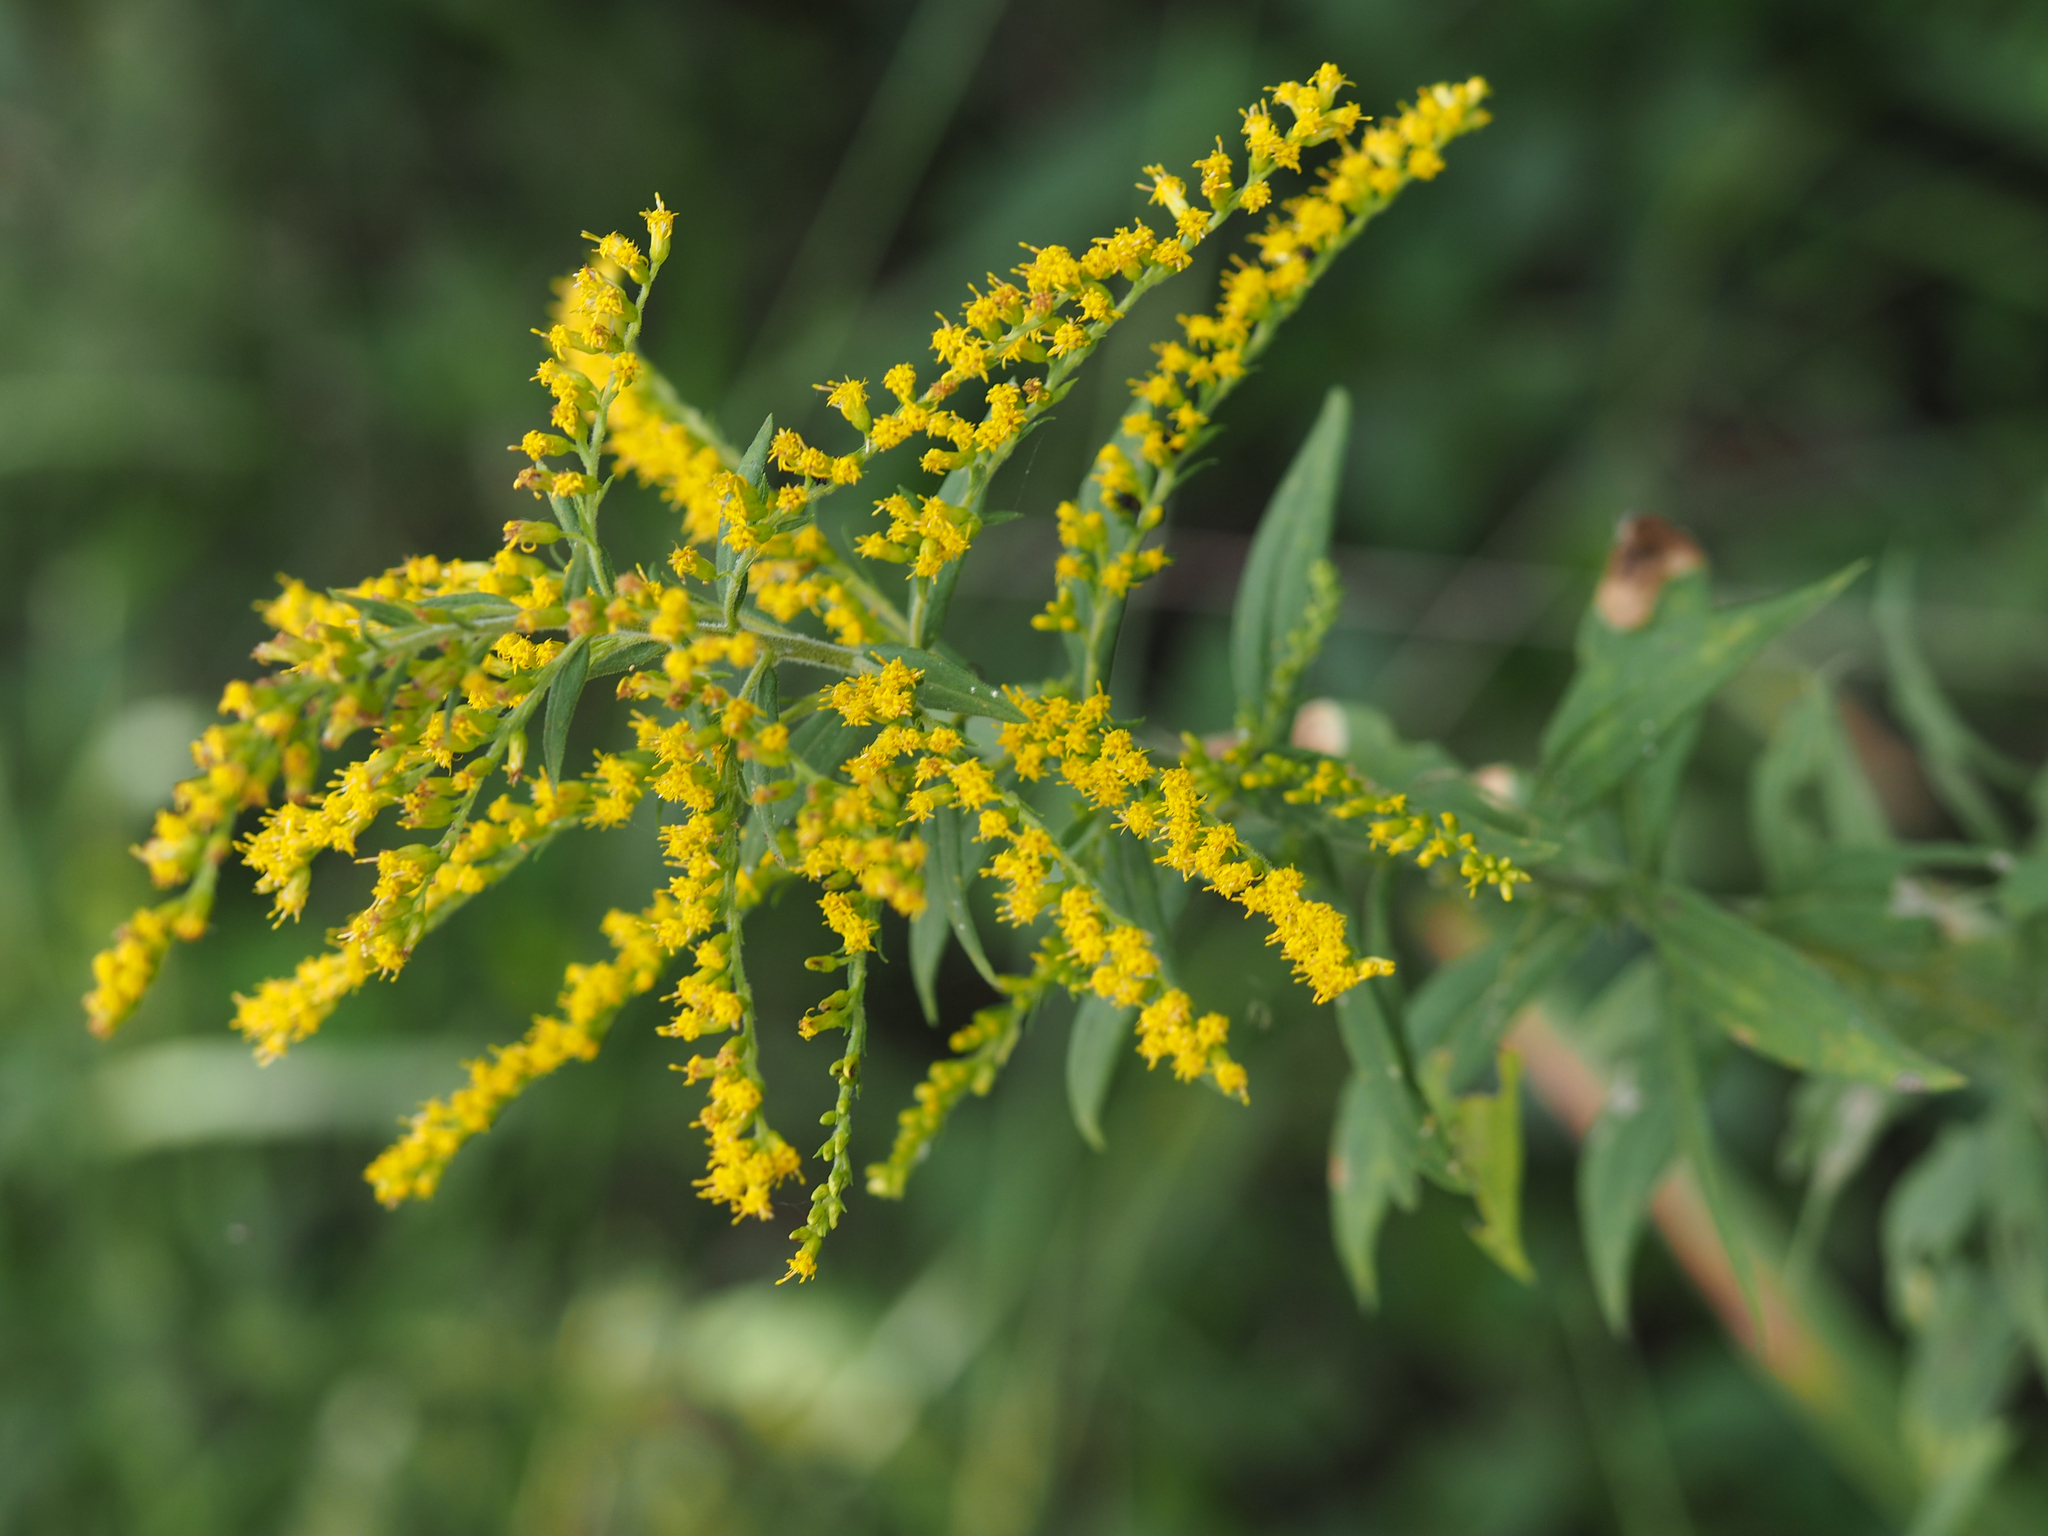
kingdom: Plantae
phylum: Tracheophyta
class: Magnoliopsida
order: Asterales
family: Asteraceae
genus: Solidago
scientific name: Solidago altissima
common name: Late goldenrod
